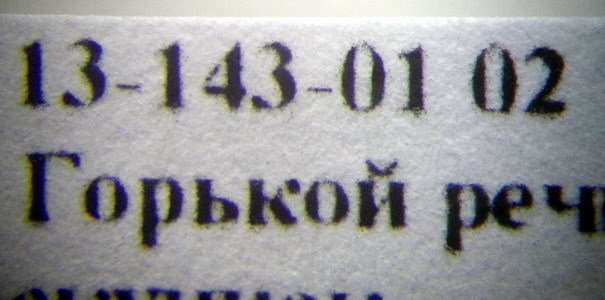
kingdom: Animalia
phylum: Arthropoda
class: Insecta
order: Hymenoptera
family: Formicidae
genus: Plagiolepis
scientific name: Plagiolepis pallescens
